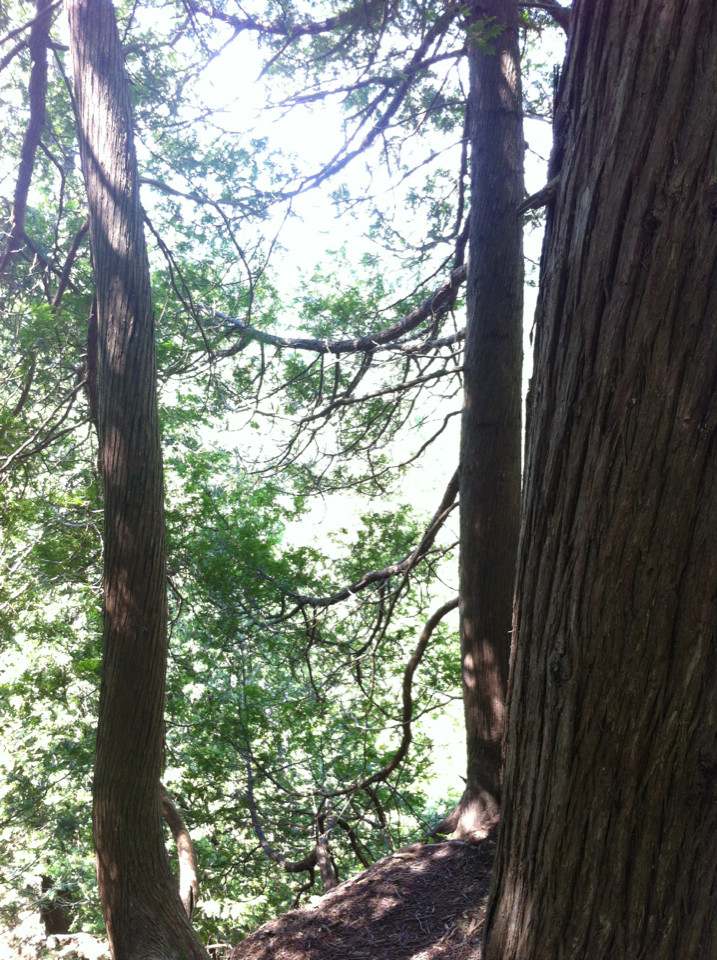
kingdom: Plantae
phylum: Tracheophyta
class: Pinopsida
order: Pinales
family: Cupressaceae
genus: Thuja
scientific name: Thuja occidentalis
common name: Northern white-cedar
